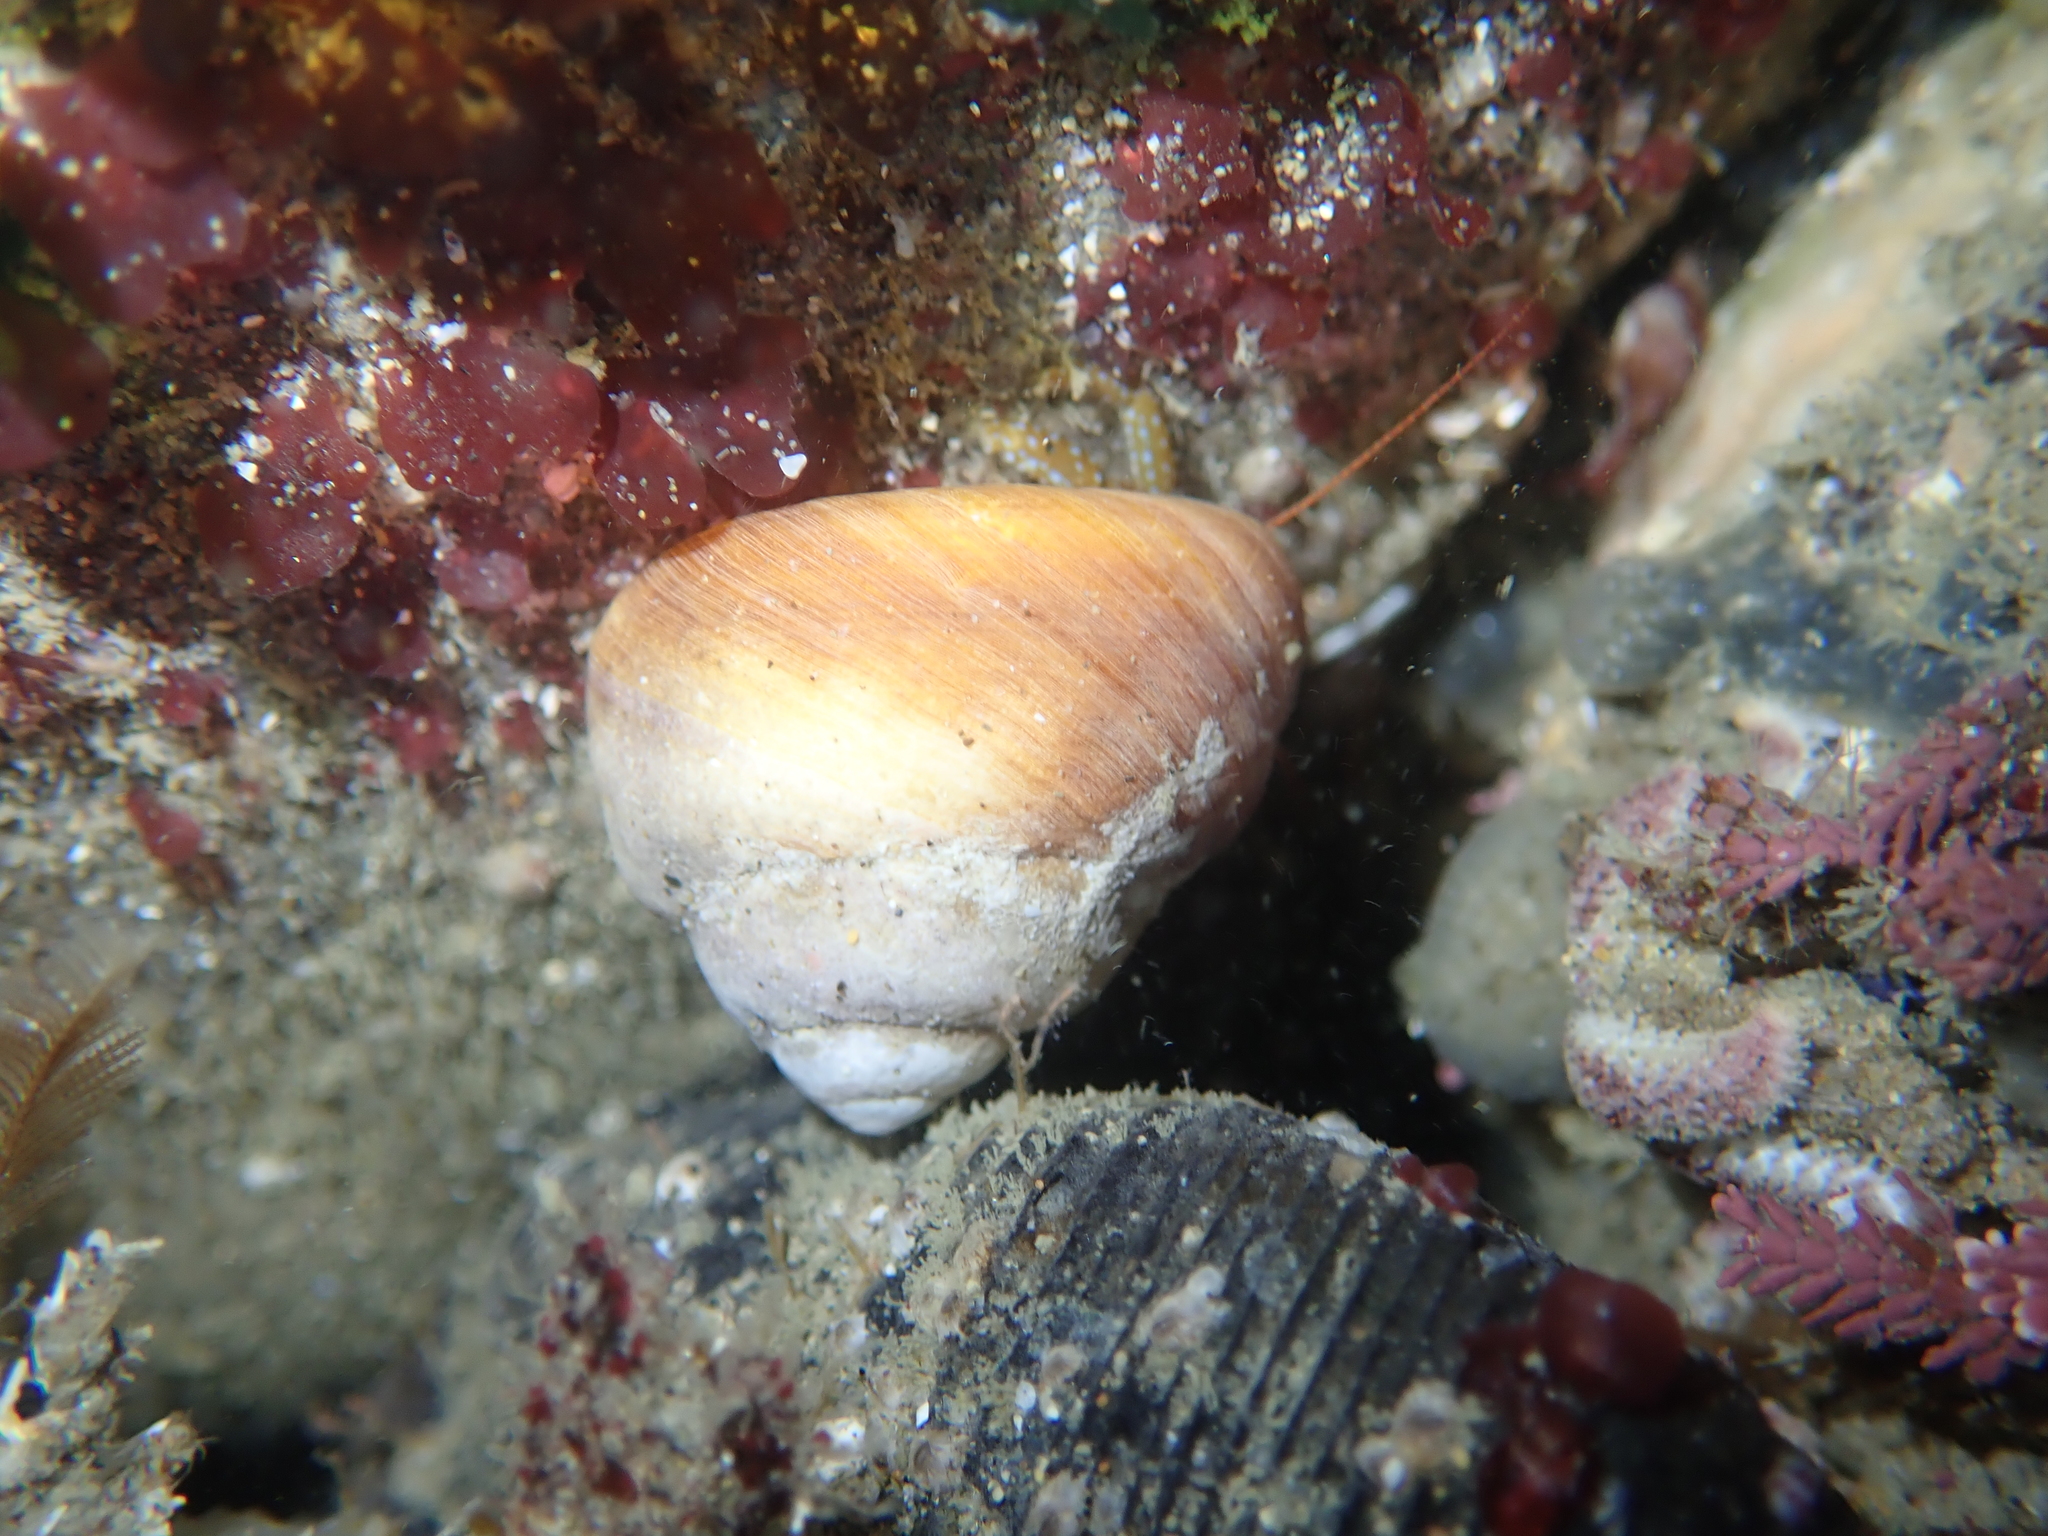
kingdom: Animalia
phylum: Mollusca
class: Gastropoda
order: Trochida
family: Tegulidae
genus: Tegula
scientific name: Tegula brunnea
